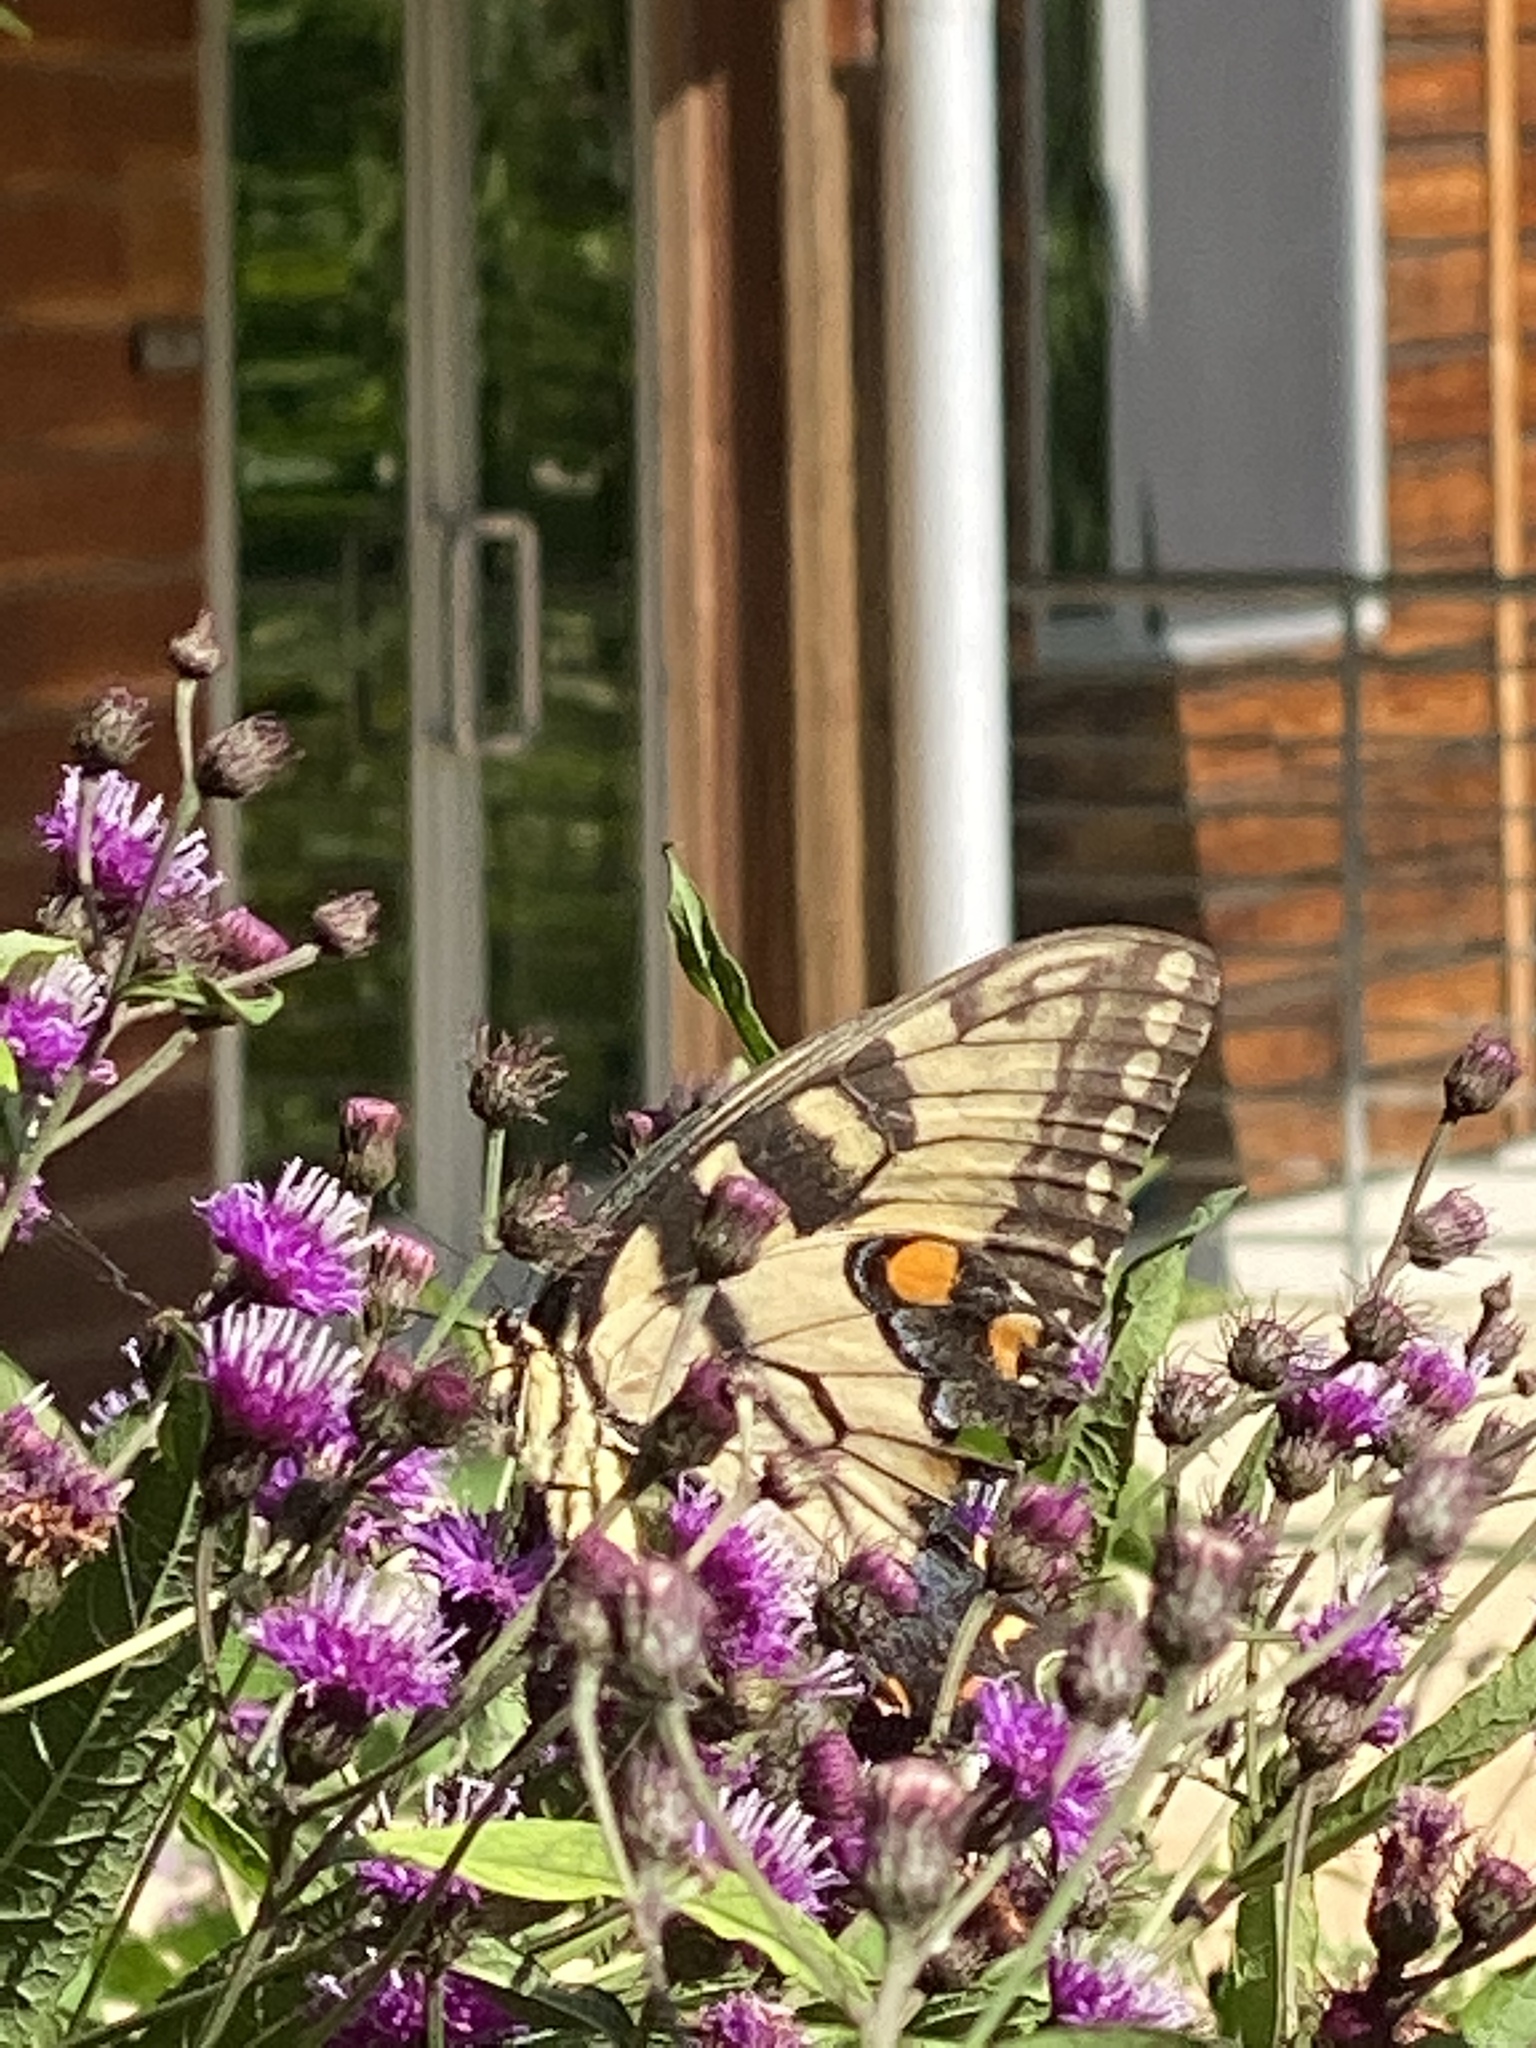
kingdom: Animalia
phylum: Arthropoda
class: Insecta
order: Lepidoptera
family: Papilionidae
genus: Papilio
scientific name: Papilio glaucus
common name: Tiger swallowtail
